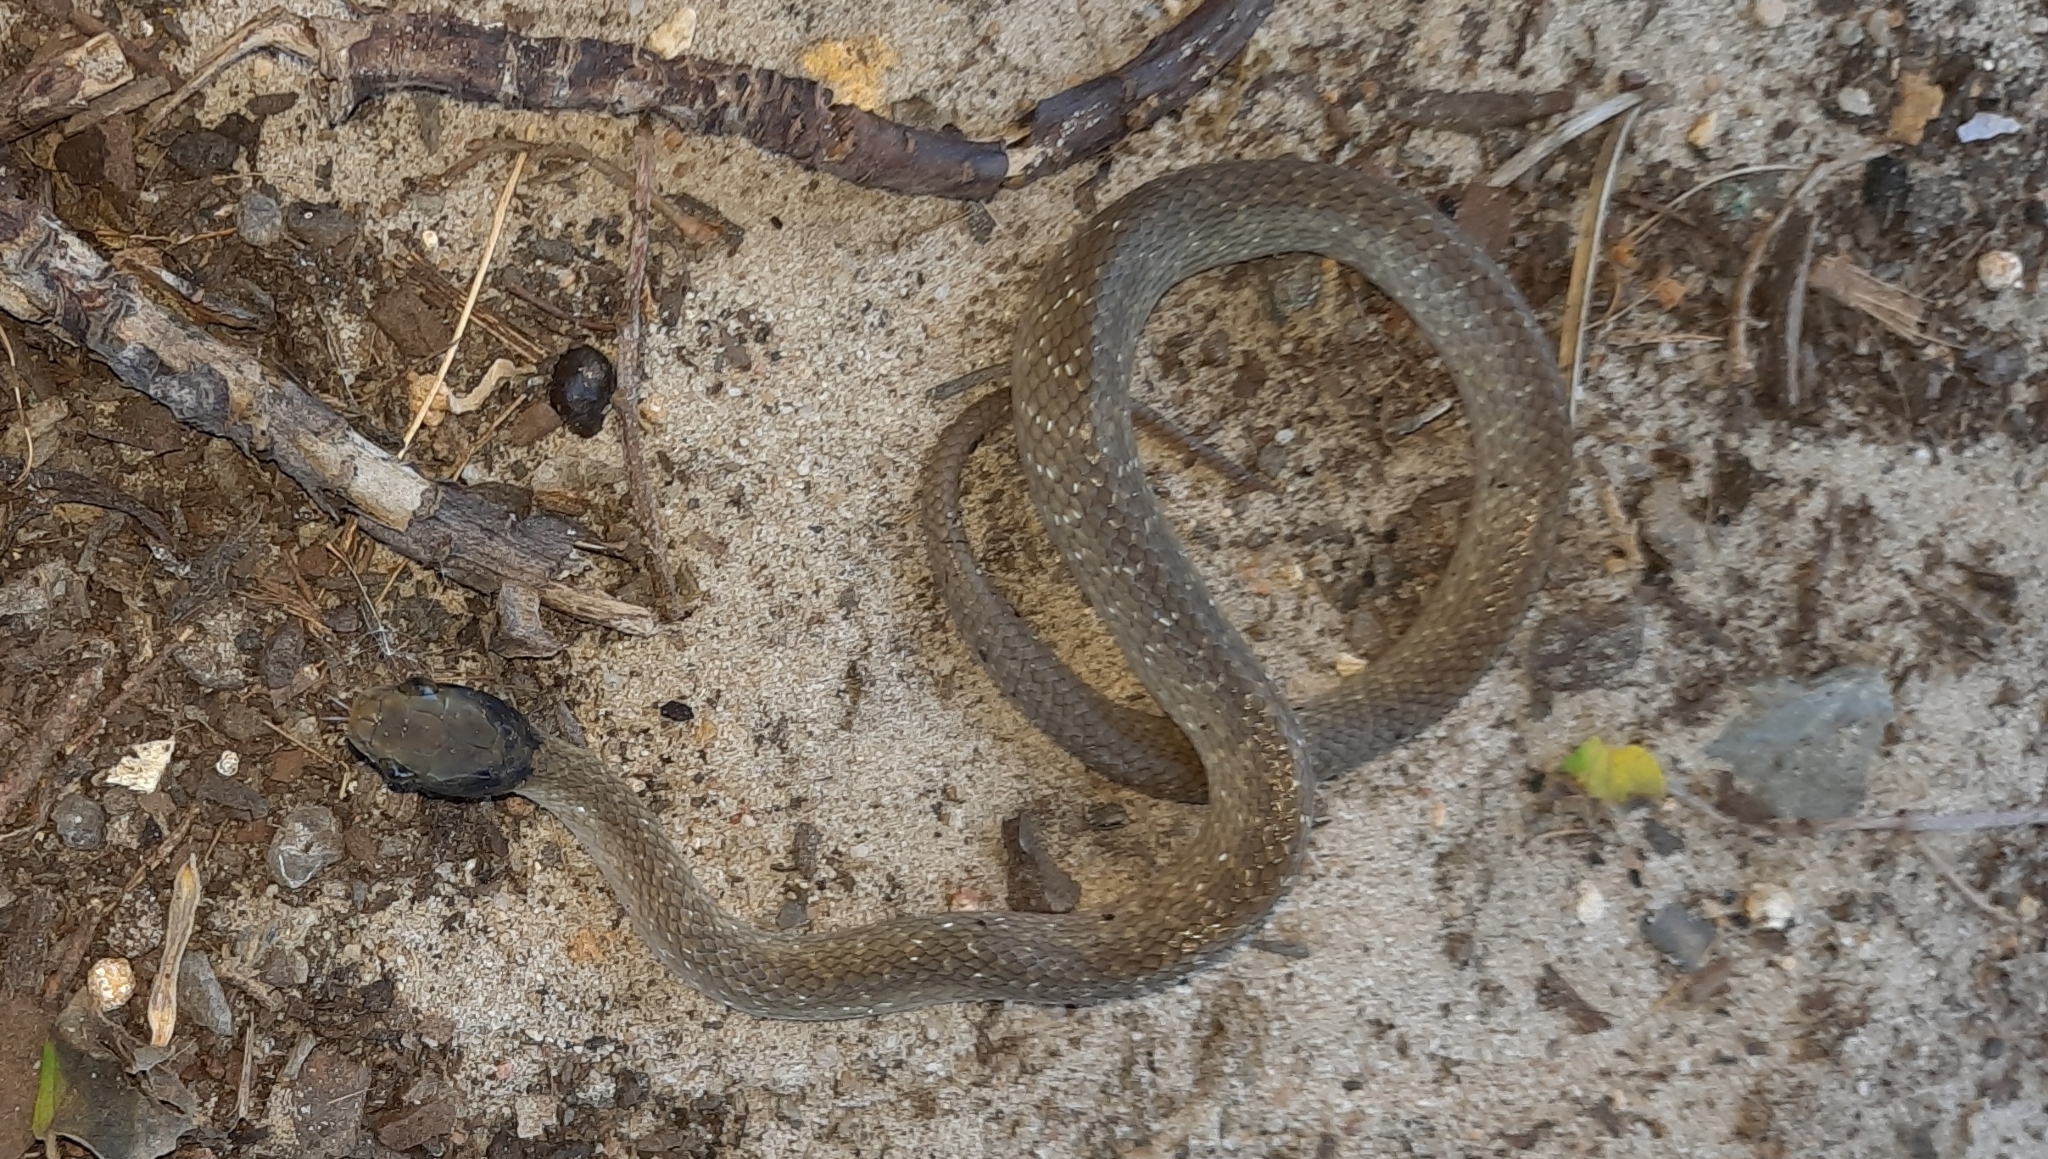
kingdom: Animalia
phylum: Chordata
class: Squamata
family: Colubridae
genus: Crotaphopeltis
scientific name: Crotaphopeltis hotamboeia
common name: Red-lipped snake
